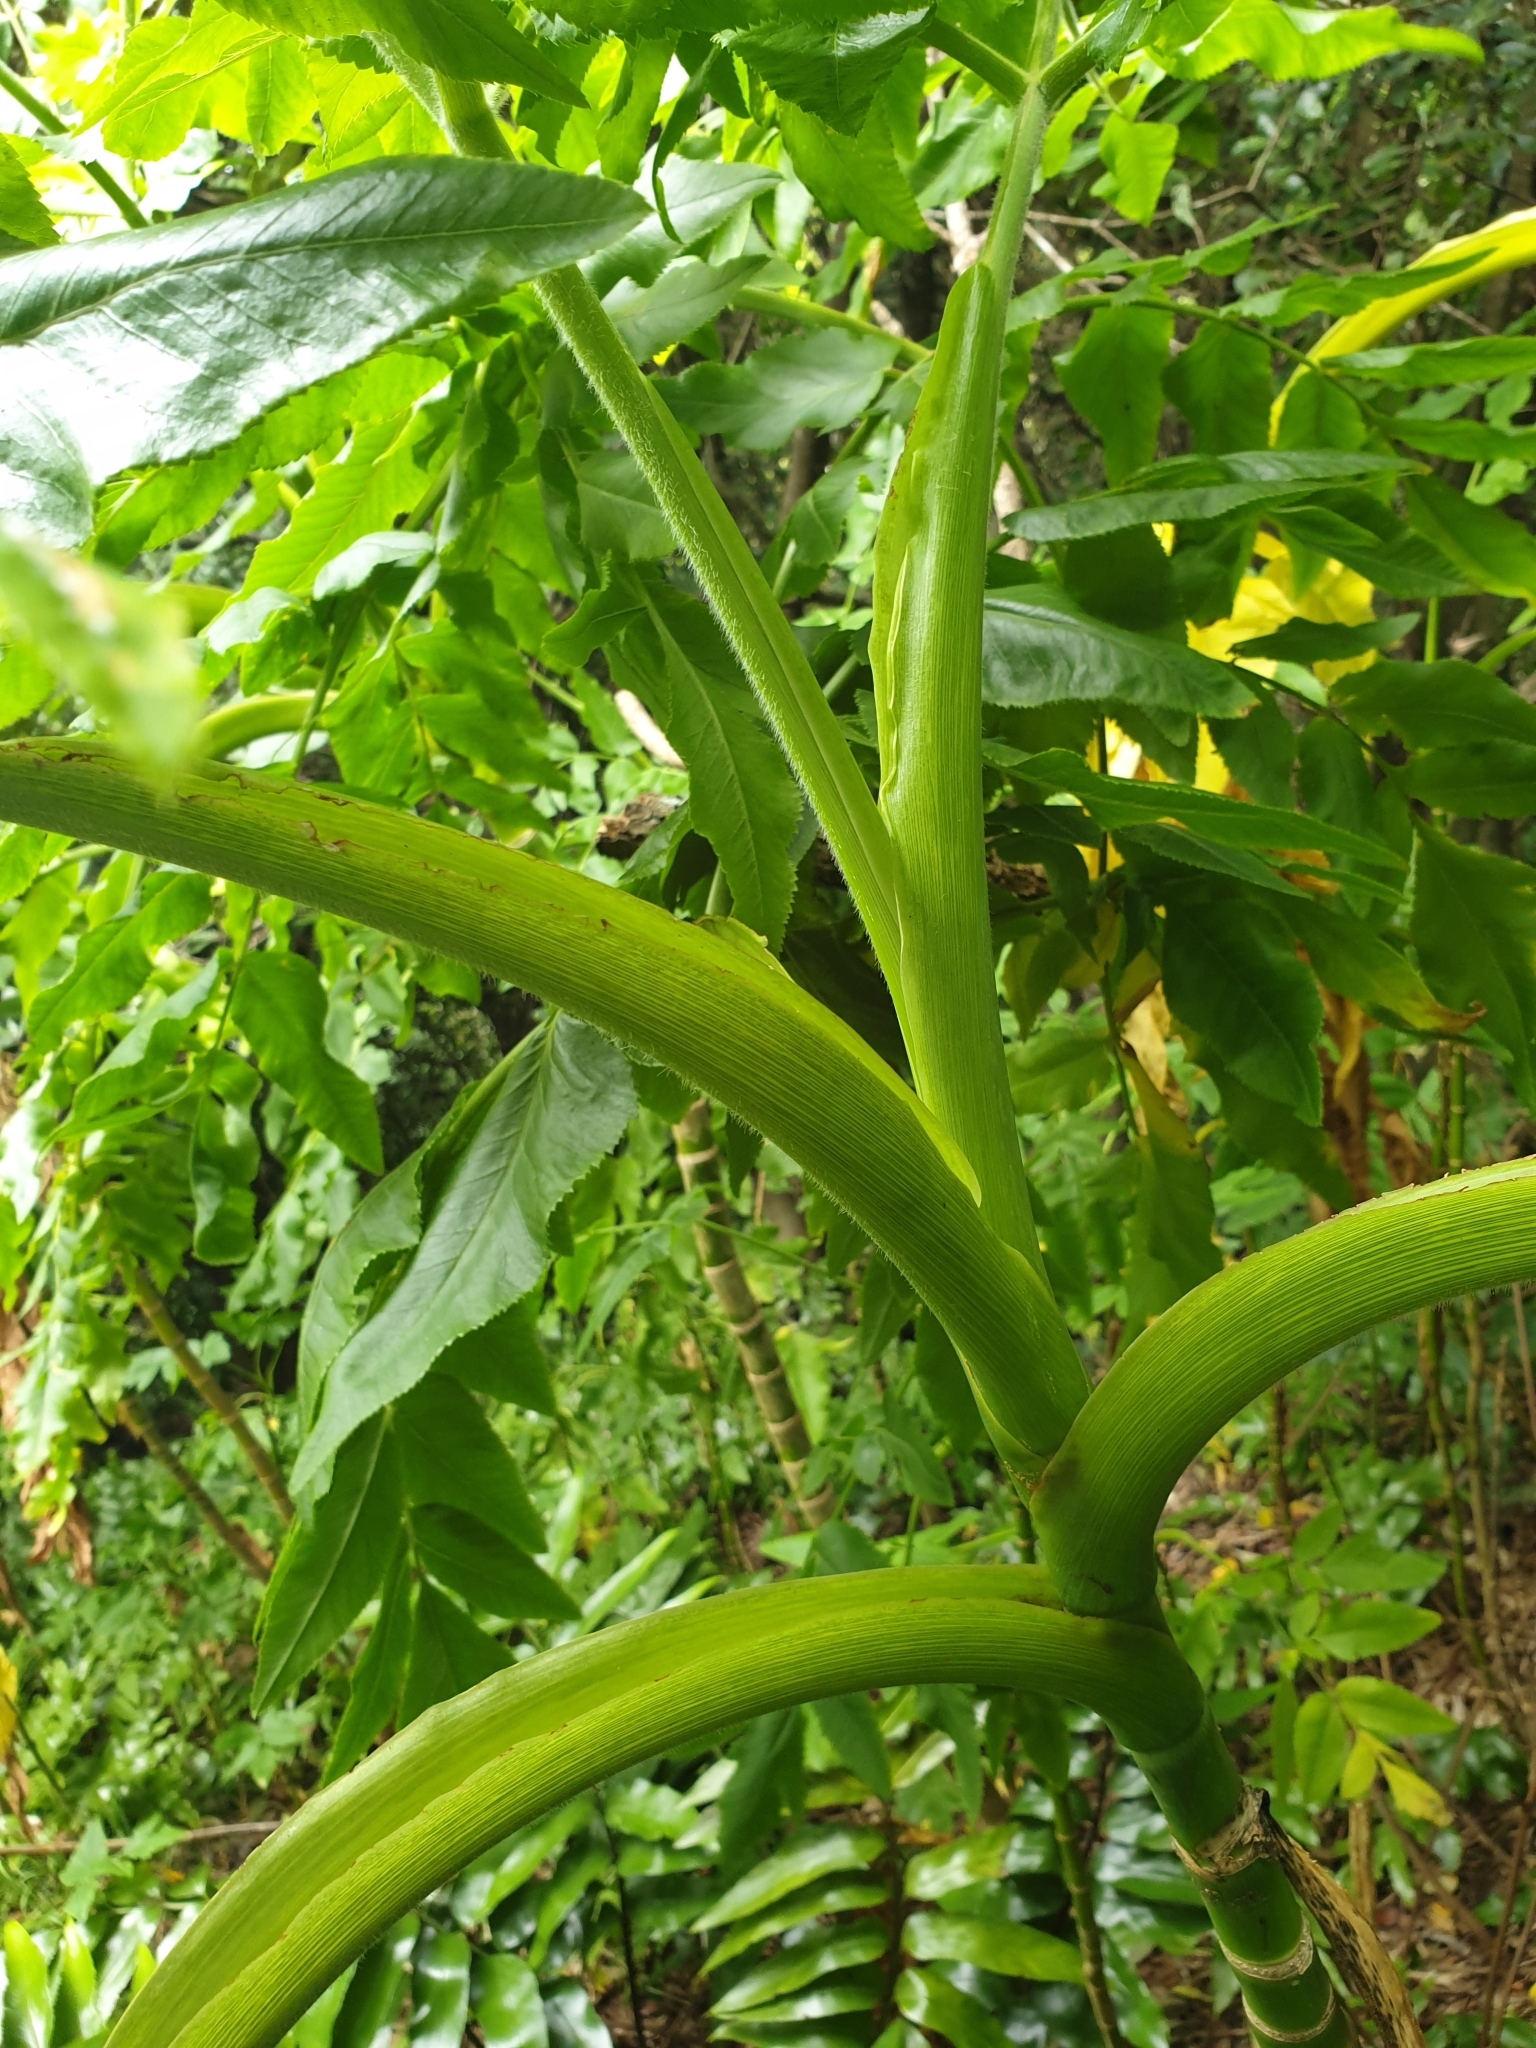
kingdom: Plantae
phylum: Tracheophyta
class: Magnoliopsida
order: Apiales
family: Apiaceae
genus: Daucus
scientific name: Daucus decipiens
